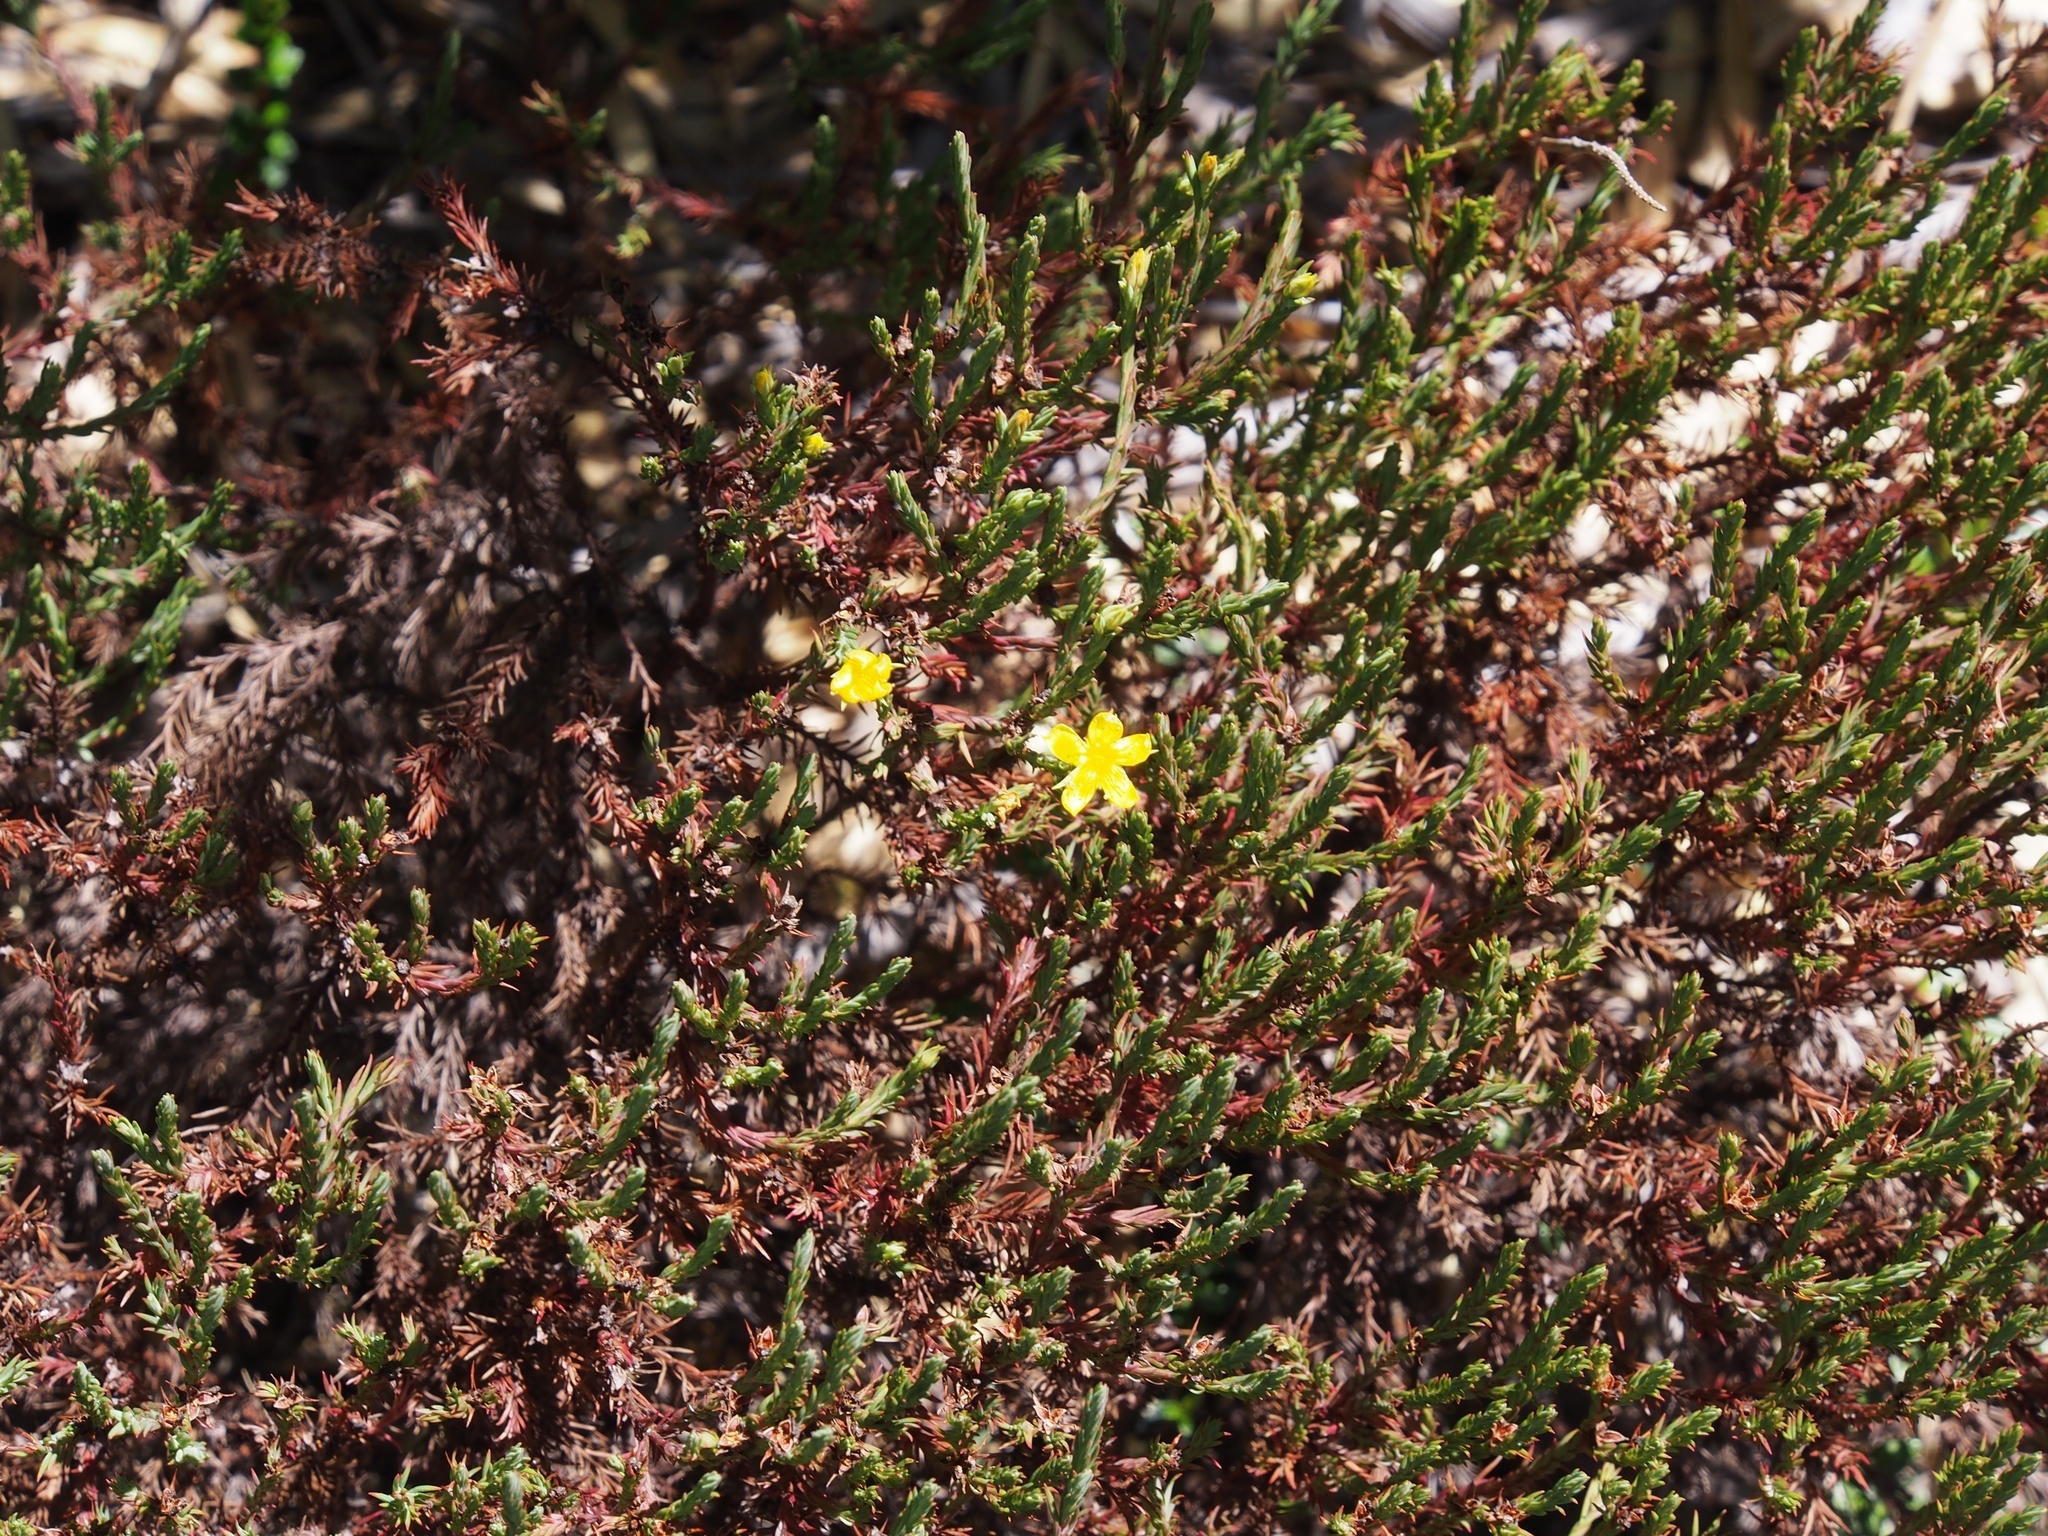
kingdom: Plantae
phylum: Tracheophyta
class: Magnoliopsida
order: Malpighiales
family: Hypericaceae
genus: Hypericum
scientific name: Hypericum costaricense
